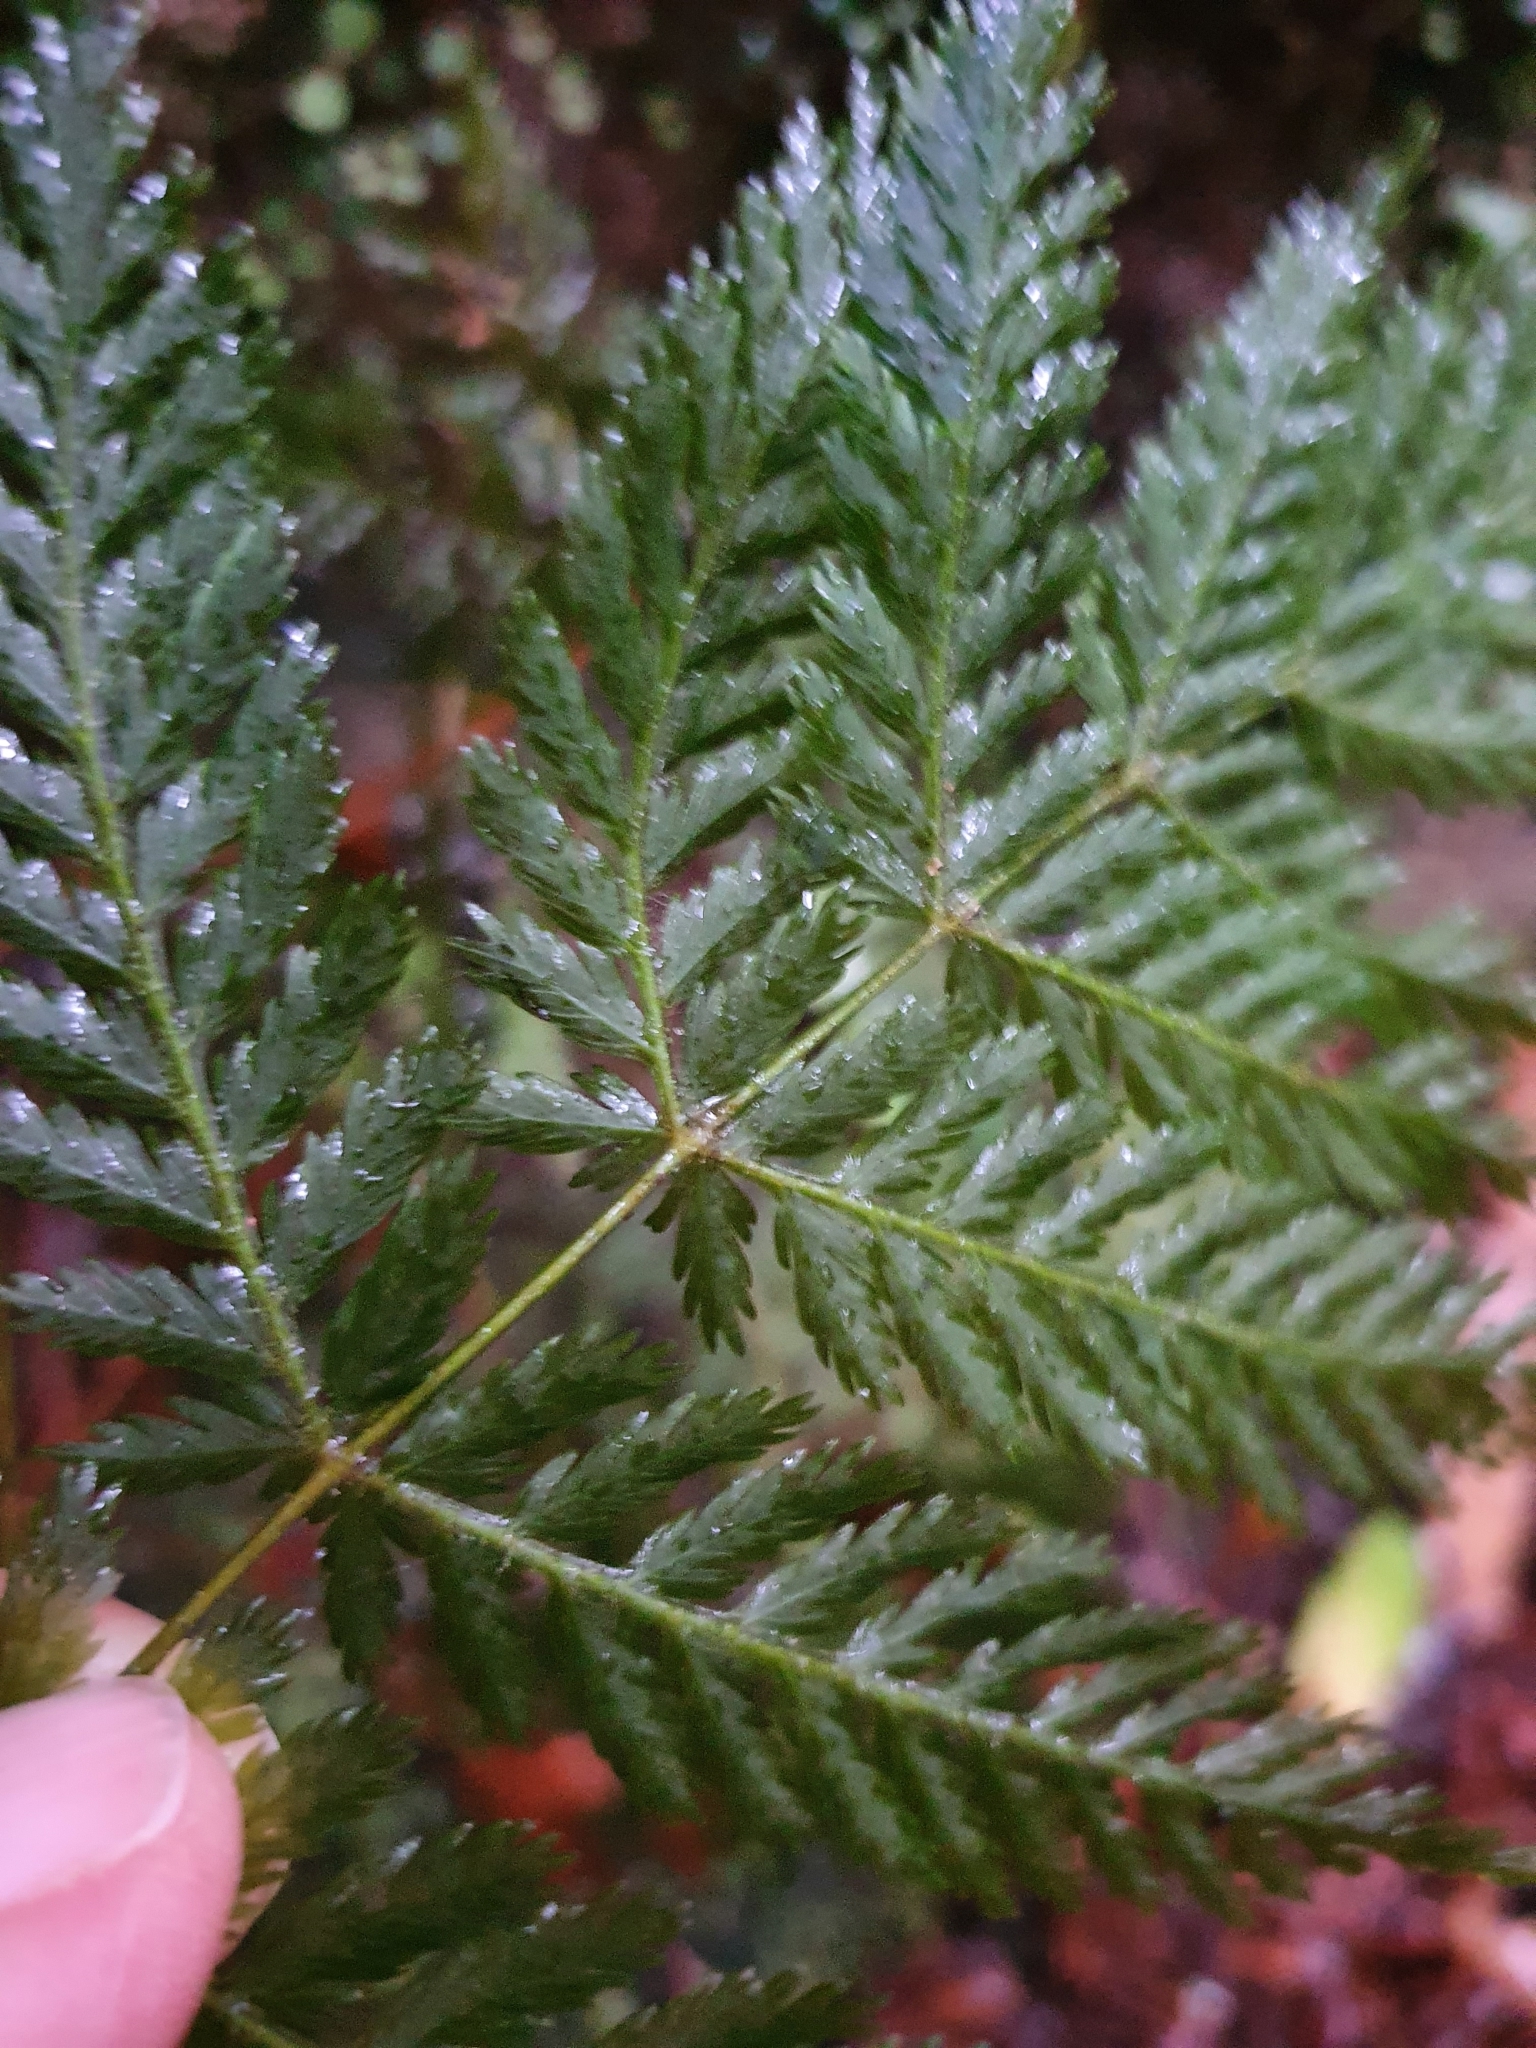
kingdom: Plantae
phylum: Tracheophyta
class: Polypodiopsida
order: Osmundales
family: Osmundaceae
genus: Leptopteris
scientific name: Leptopteris hymenophylloides
